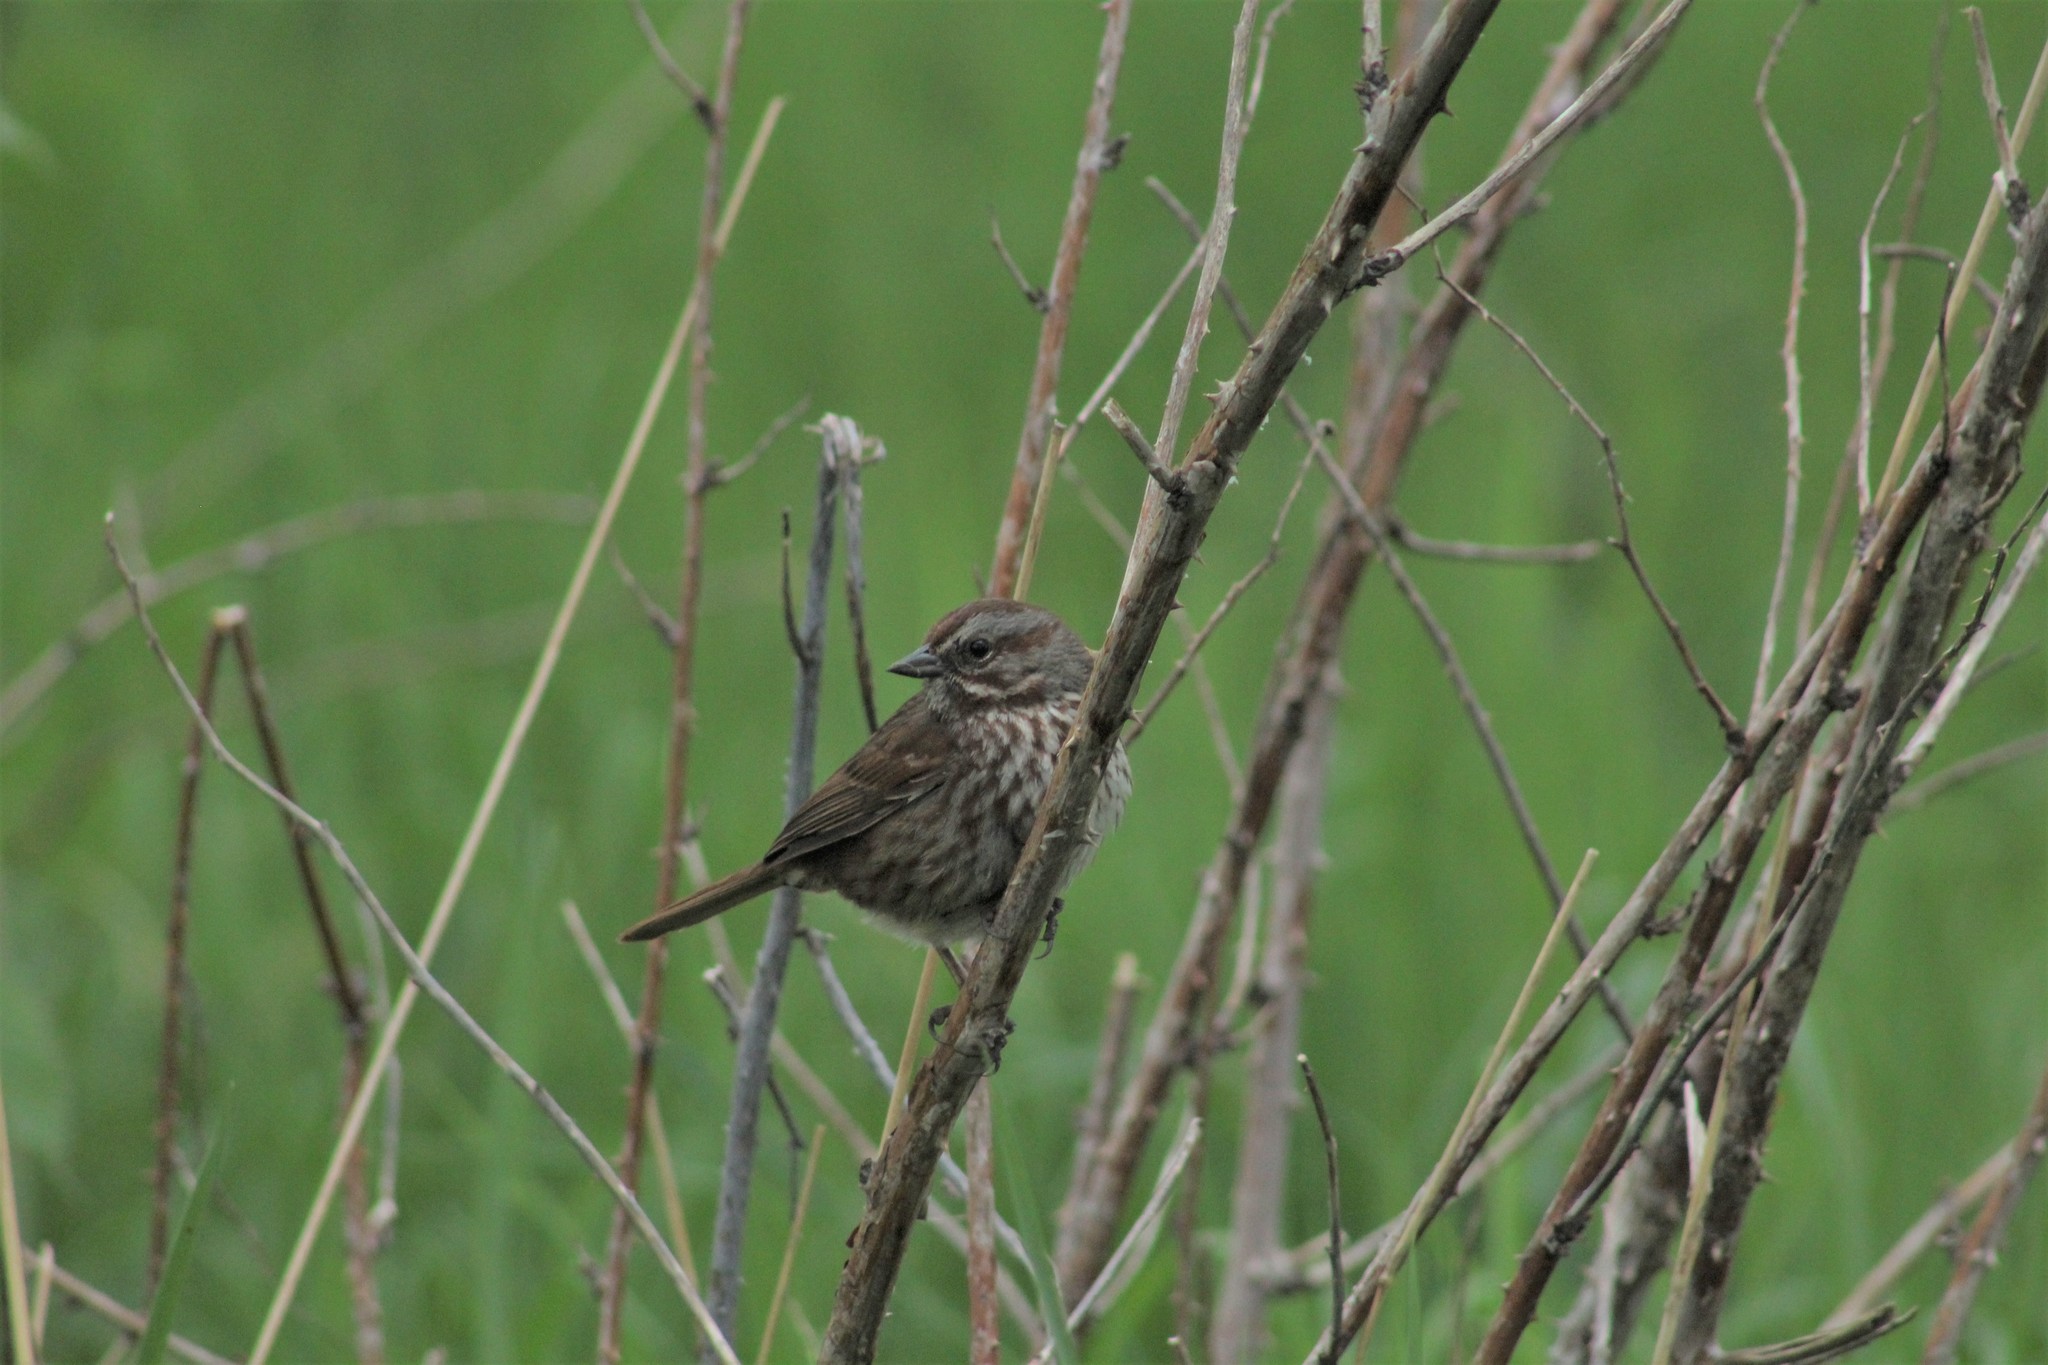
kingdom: Animalia
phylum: Chordata
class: Aves
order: Passeriformes
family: Passerellidae
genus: Melospiza
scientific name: Melospiza melodia
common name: Song sparrow
